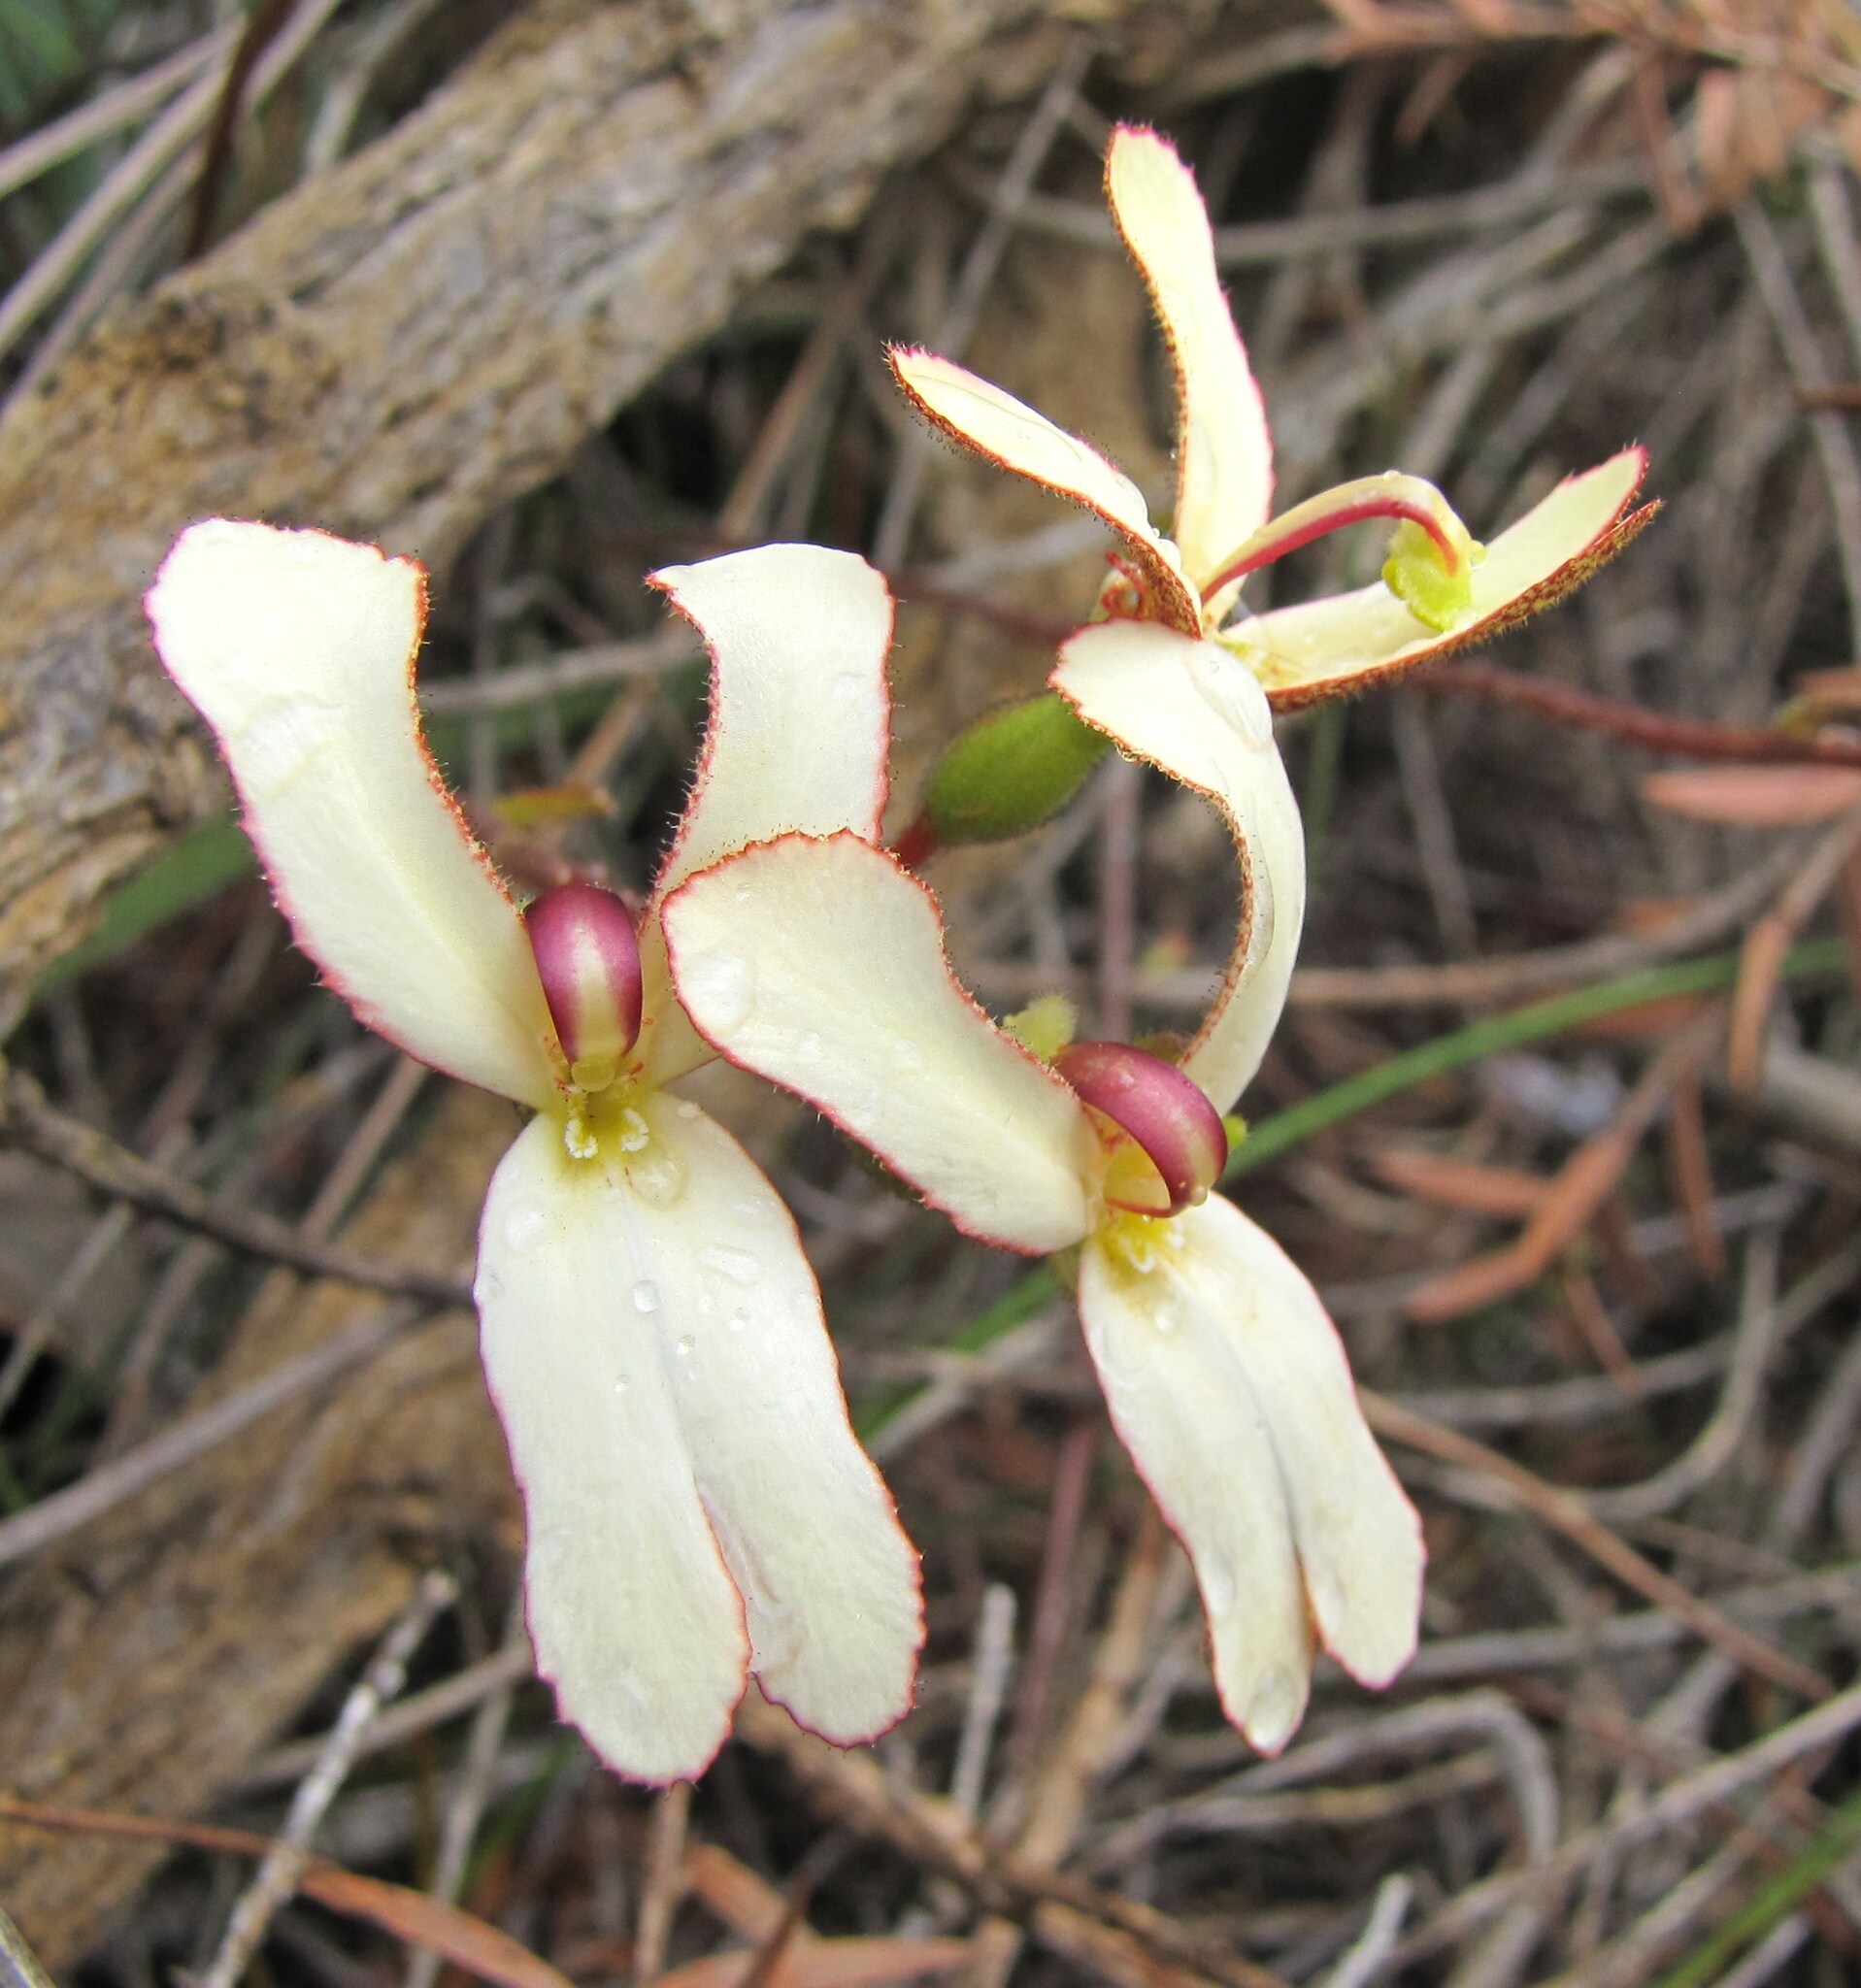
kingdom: Plantae
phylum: Tracheophyta
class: Magnoliopsida
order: Asterales
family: Stylidiaceae
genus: Stylidium
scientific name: Stylidium schoenoides
